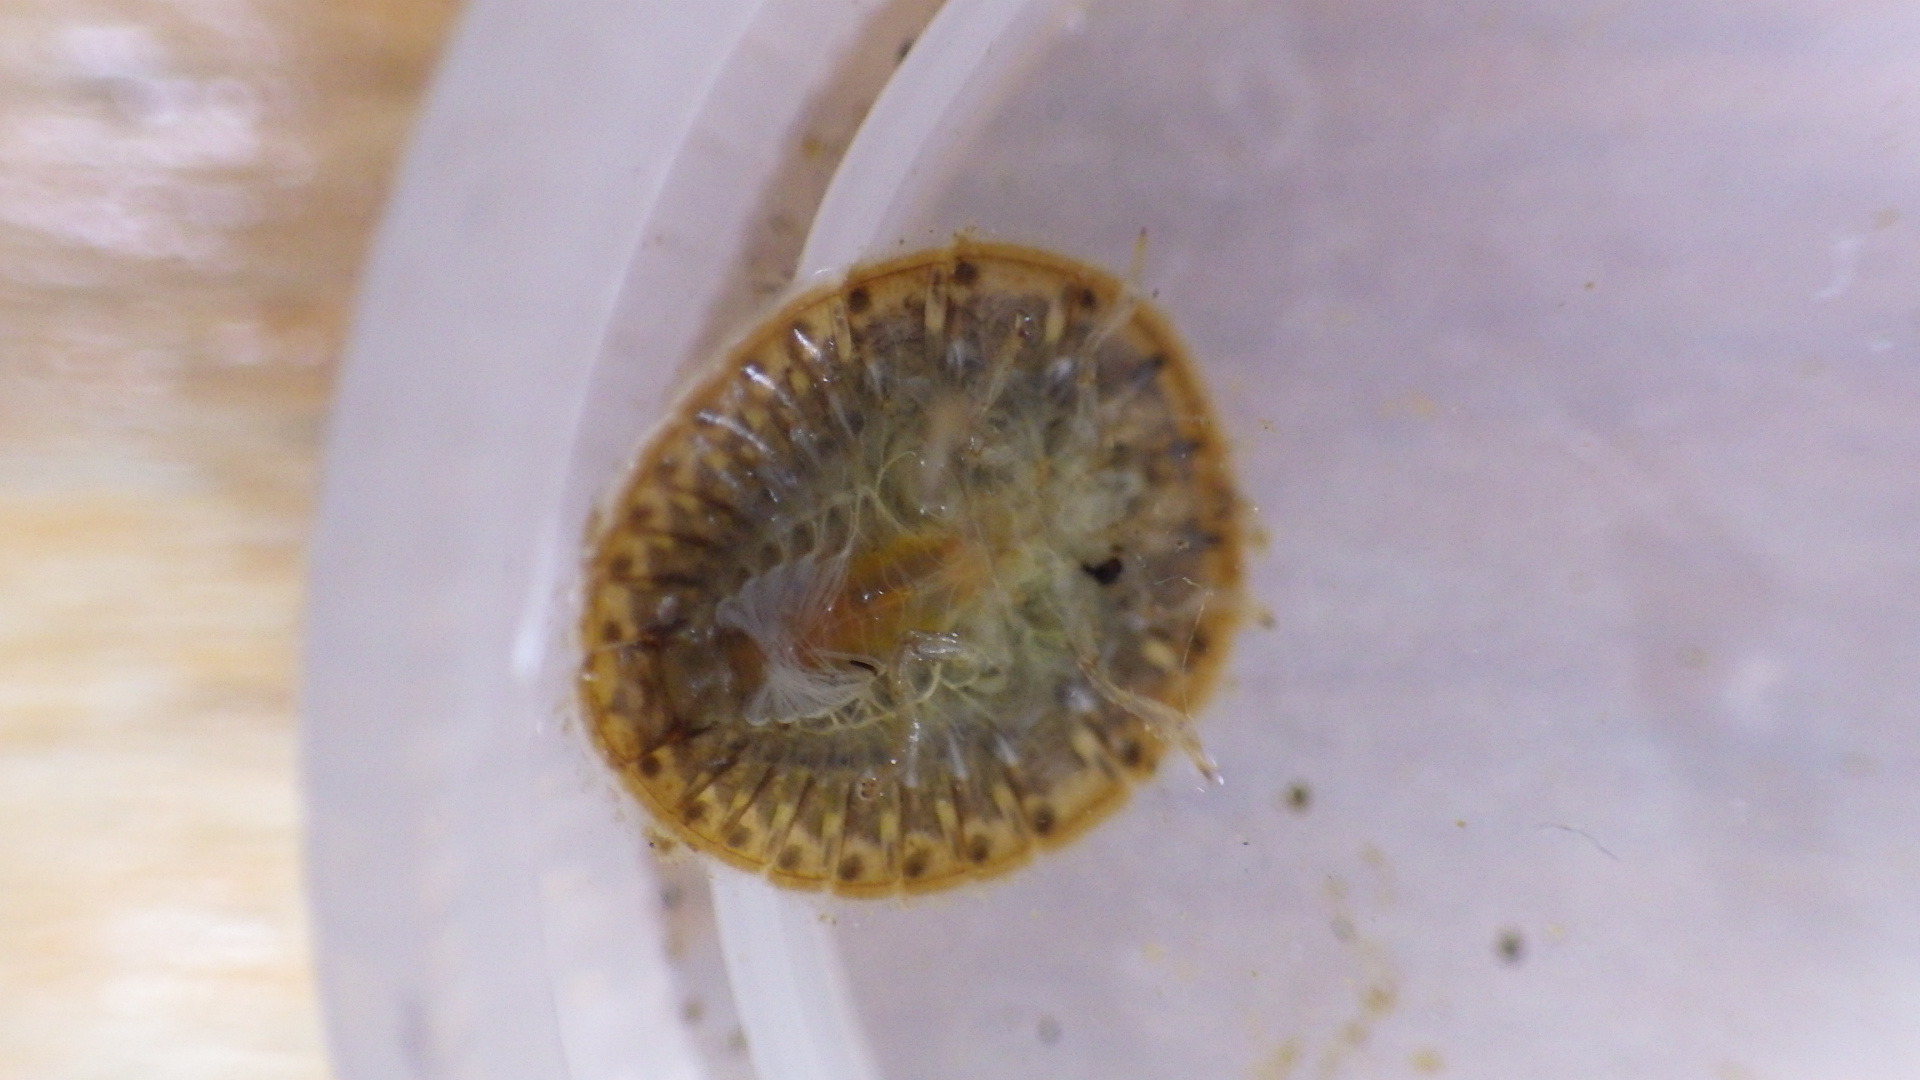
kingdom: Animalia
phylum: Arthropoda
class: Insecta
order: Coleoptera
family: Psephenidae
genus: Psephenus
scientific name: Psephenus herricki
